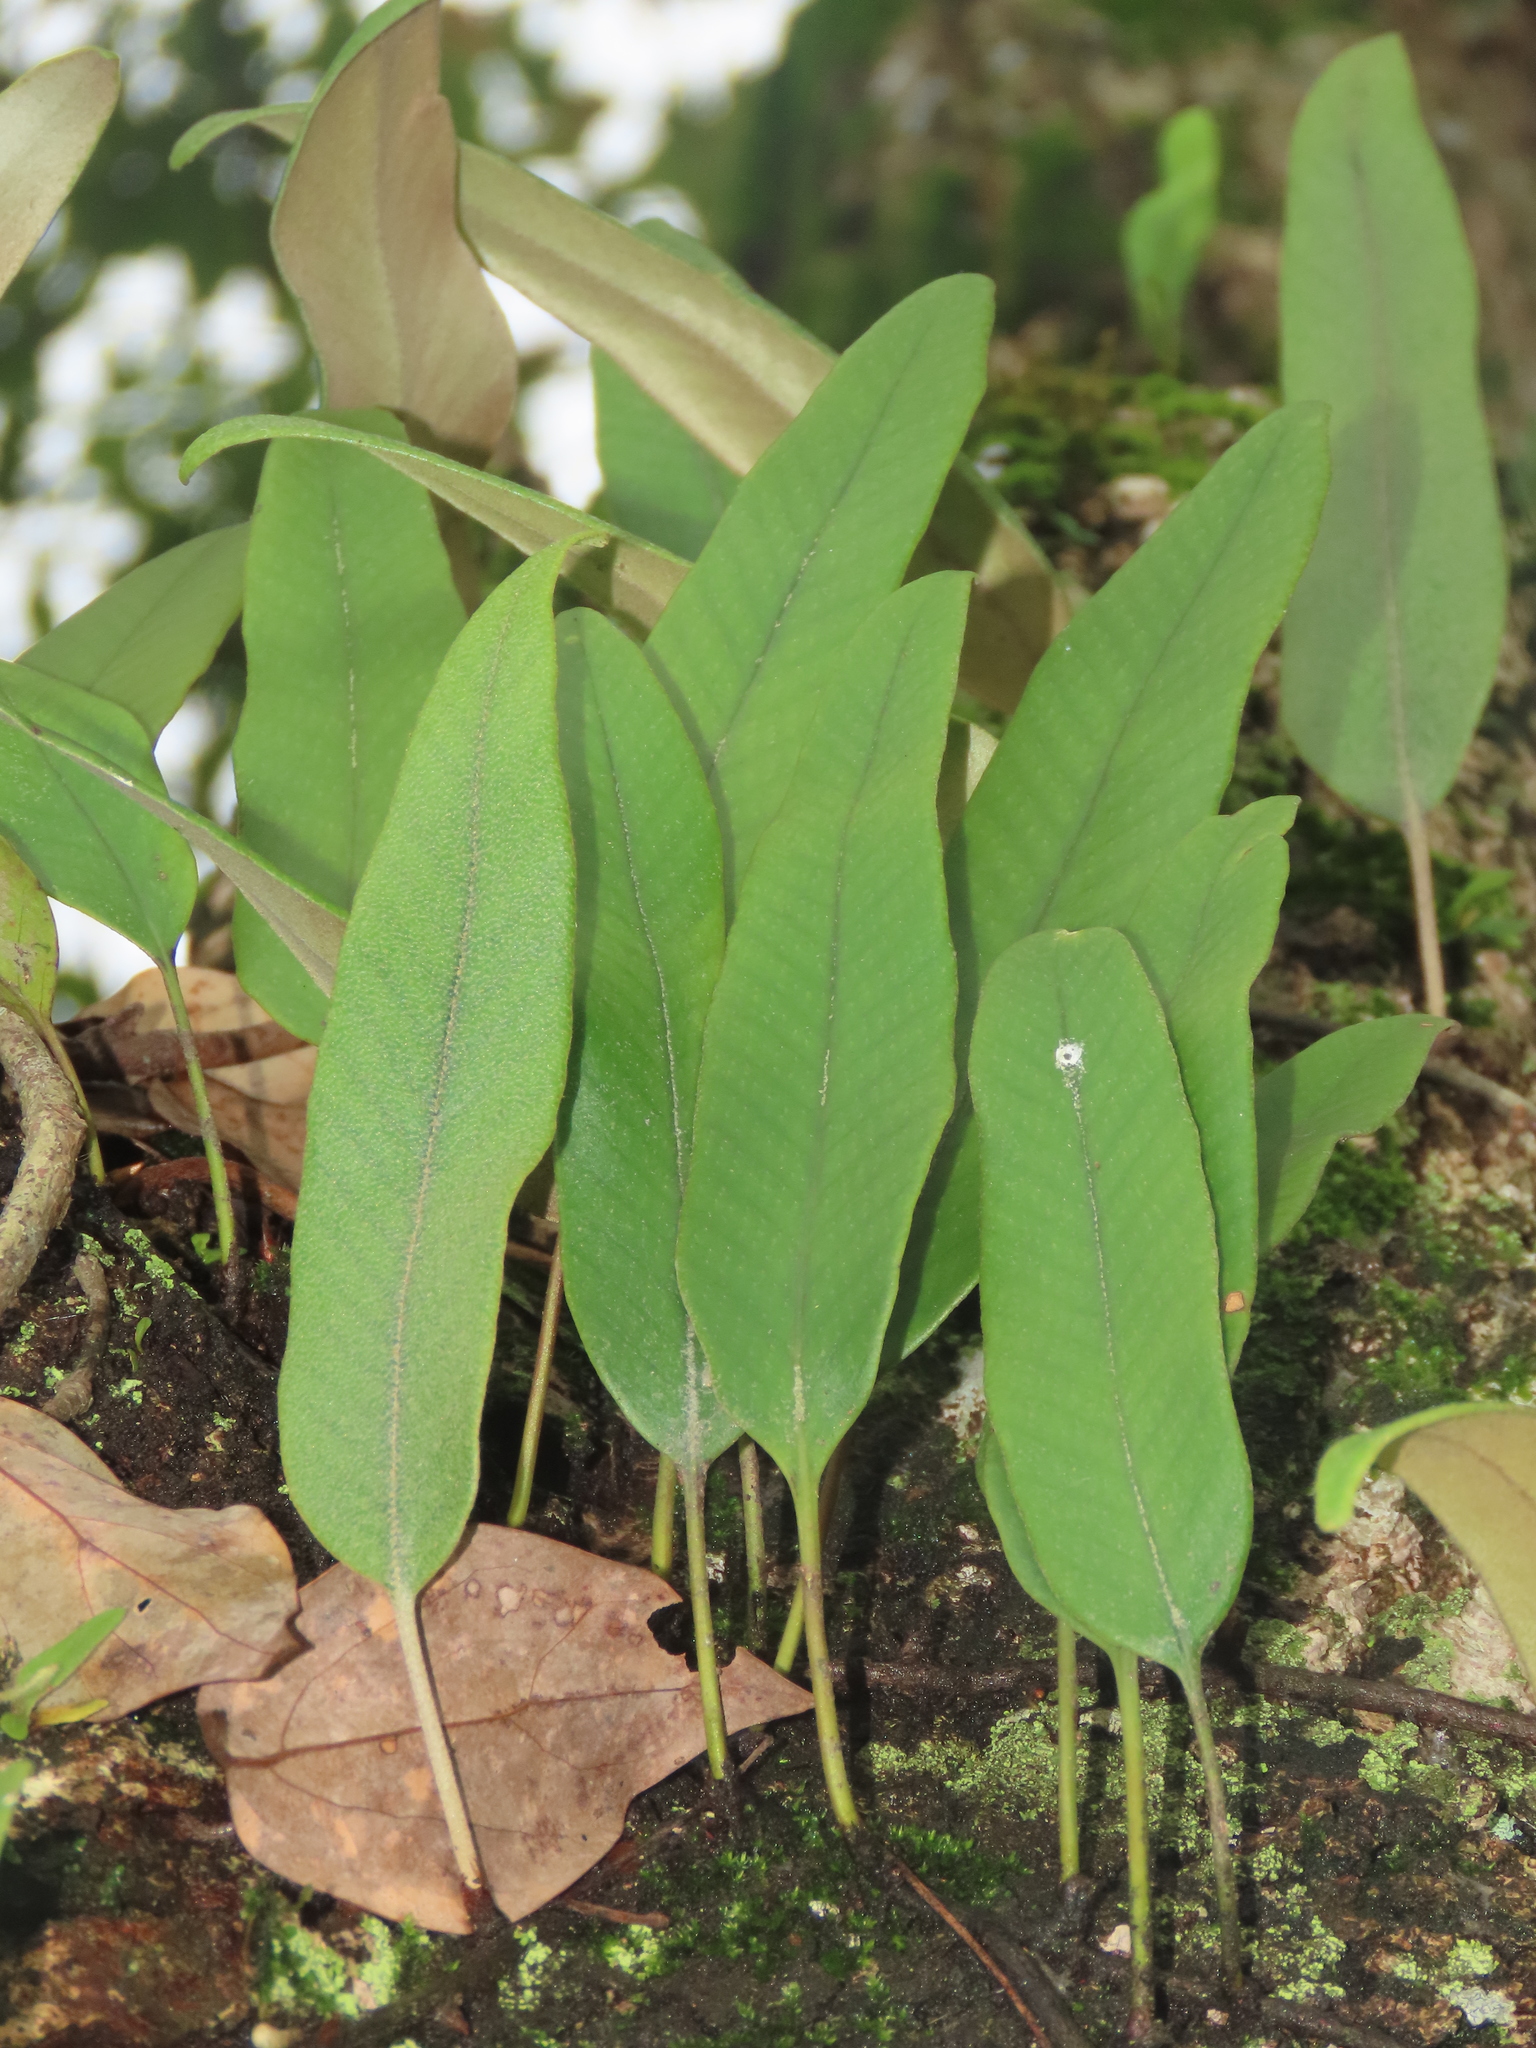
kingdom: Plantae
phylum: Tracheophyta
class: Polypodiopsida
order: Polypodiales
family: Polypodiaceae
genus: Pyrrosia
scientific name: Pyrrosia lingua
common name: Felt fern
